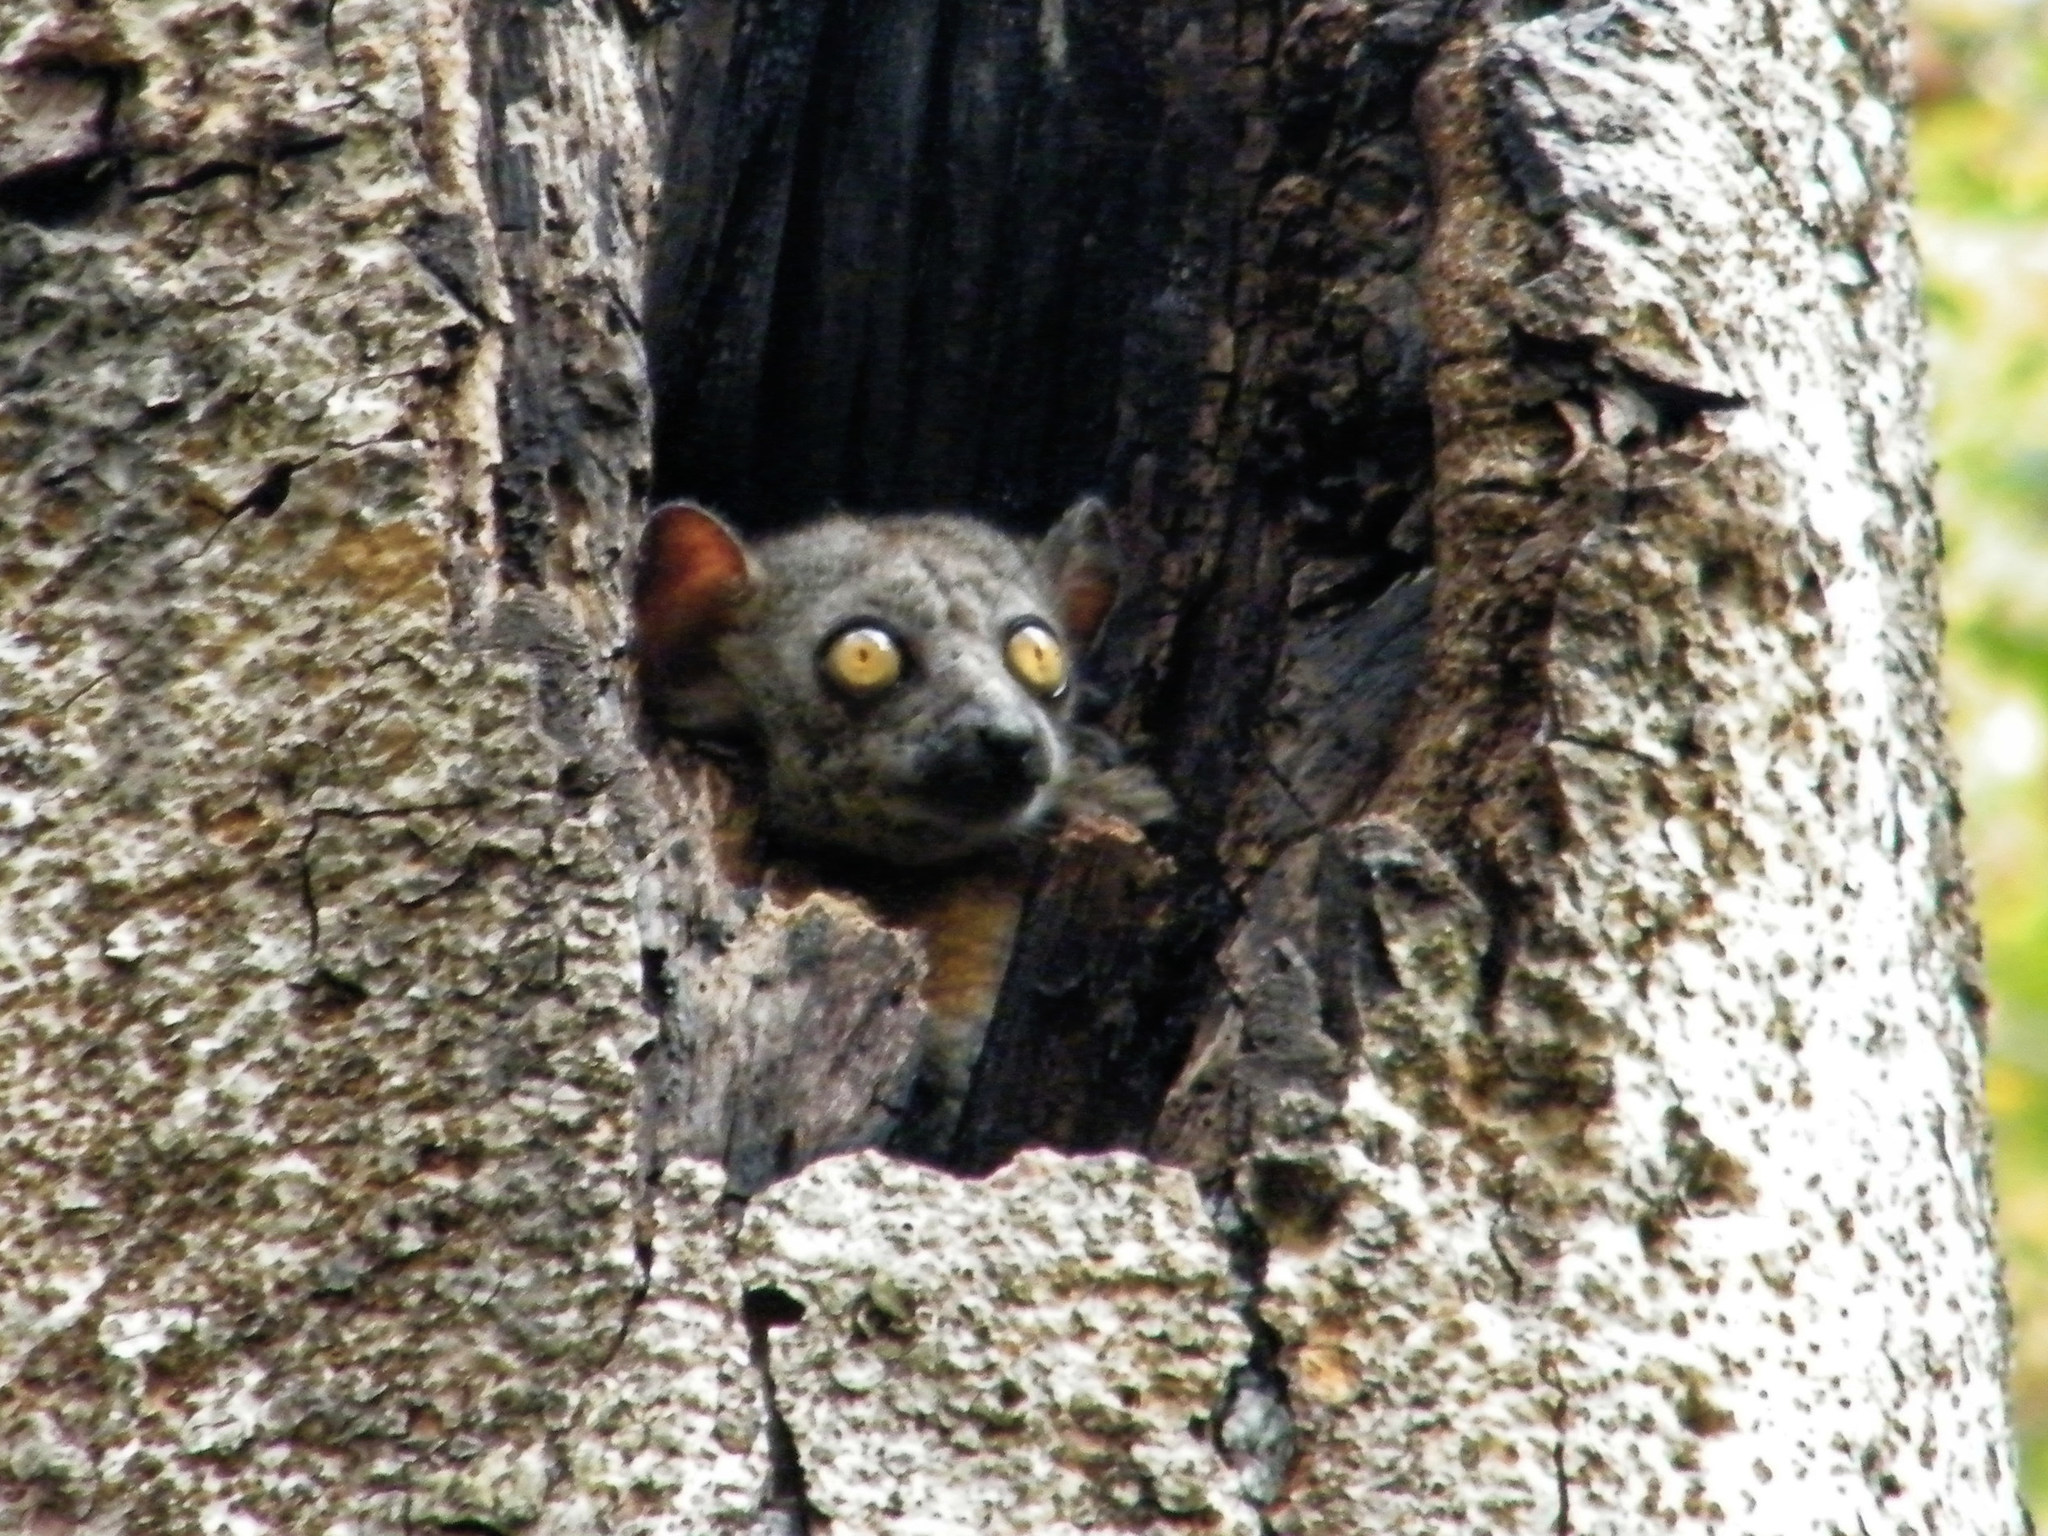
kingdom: Animalia
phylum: Chordata
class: Mammalia
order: Primates
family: Lepilemuridae
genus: Lepilemur
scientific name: Lepilemur randrianasoloi
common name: Bemaraha sportive lemur
